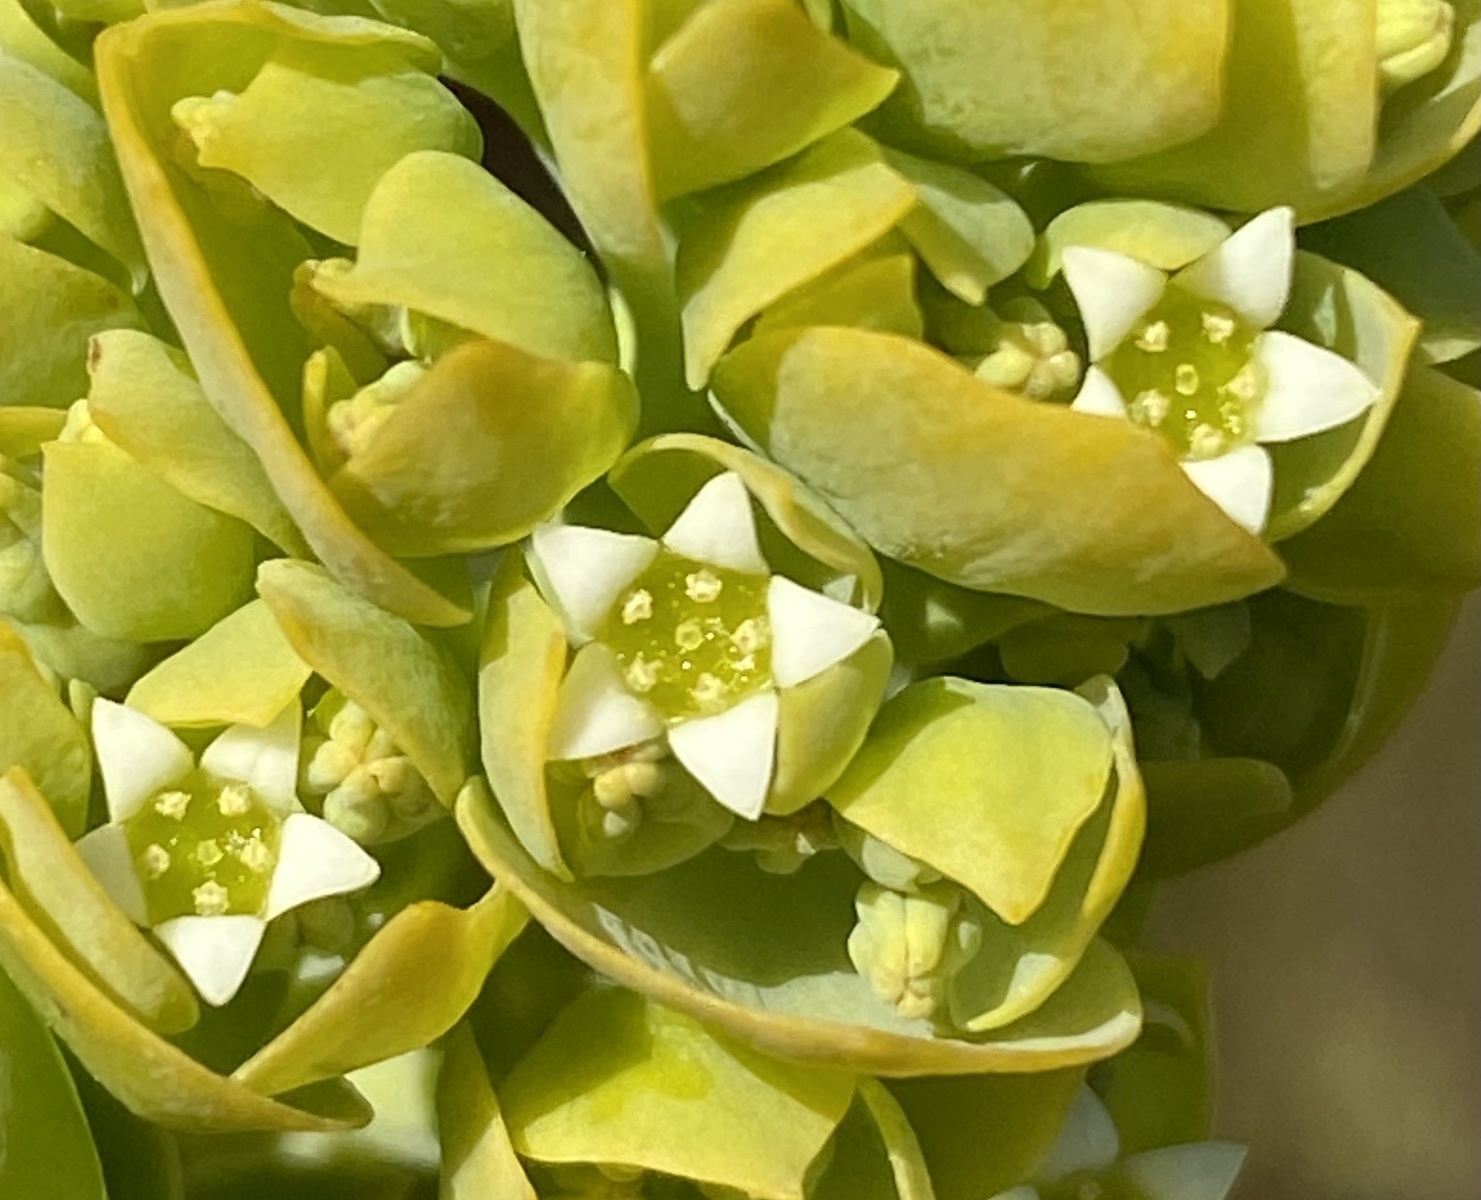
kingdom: Plantae
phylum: Tracheophyta
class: Magnoliopsida
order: Santalales
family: Thesiaceae
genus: Thesium
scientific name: Thesium euphorbioides
